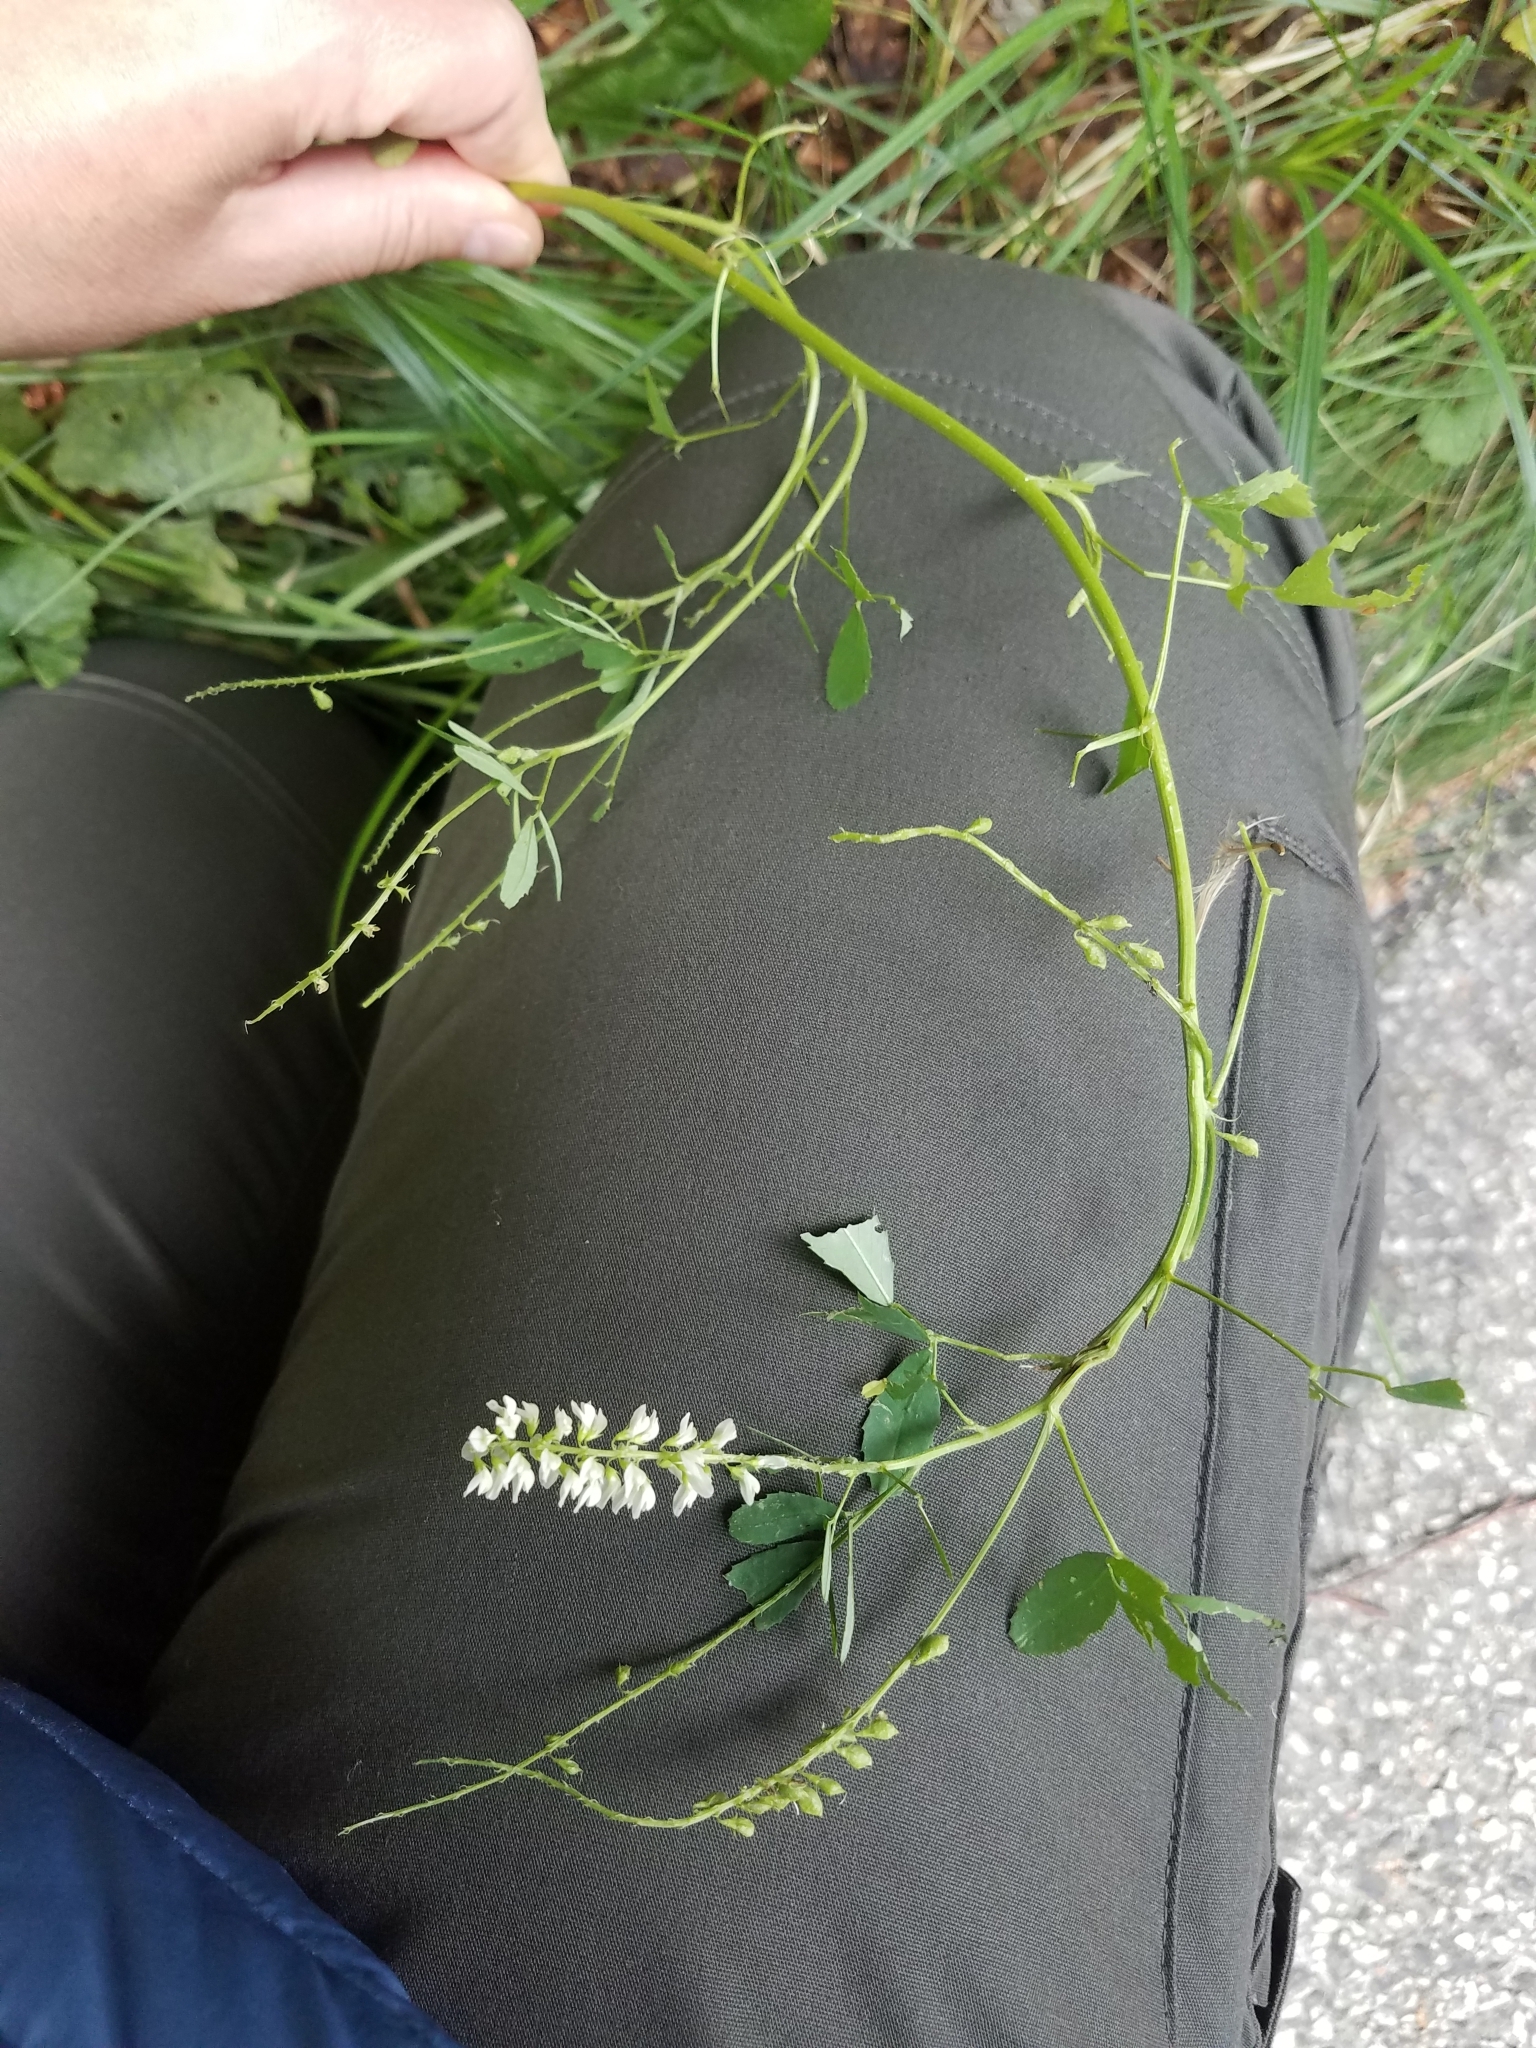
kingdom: Plantae
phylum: Tracheophyta
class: Magnoliopsida
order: Fabales
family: Fabaceae
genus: Melilotus
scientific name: Melilotus albus
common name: White melilot
